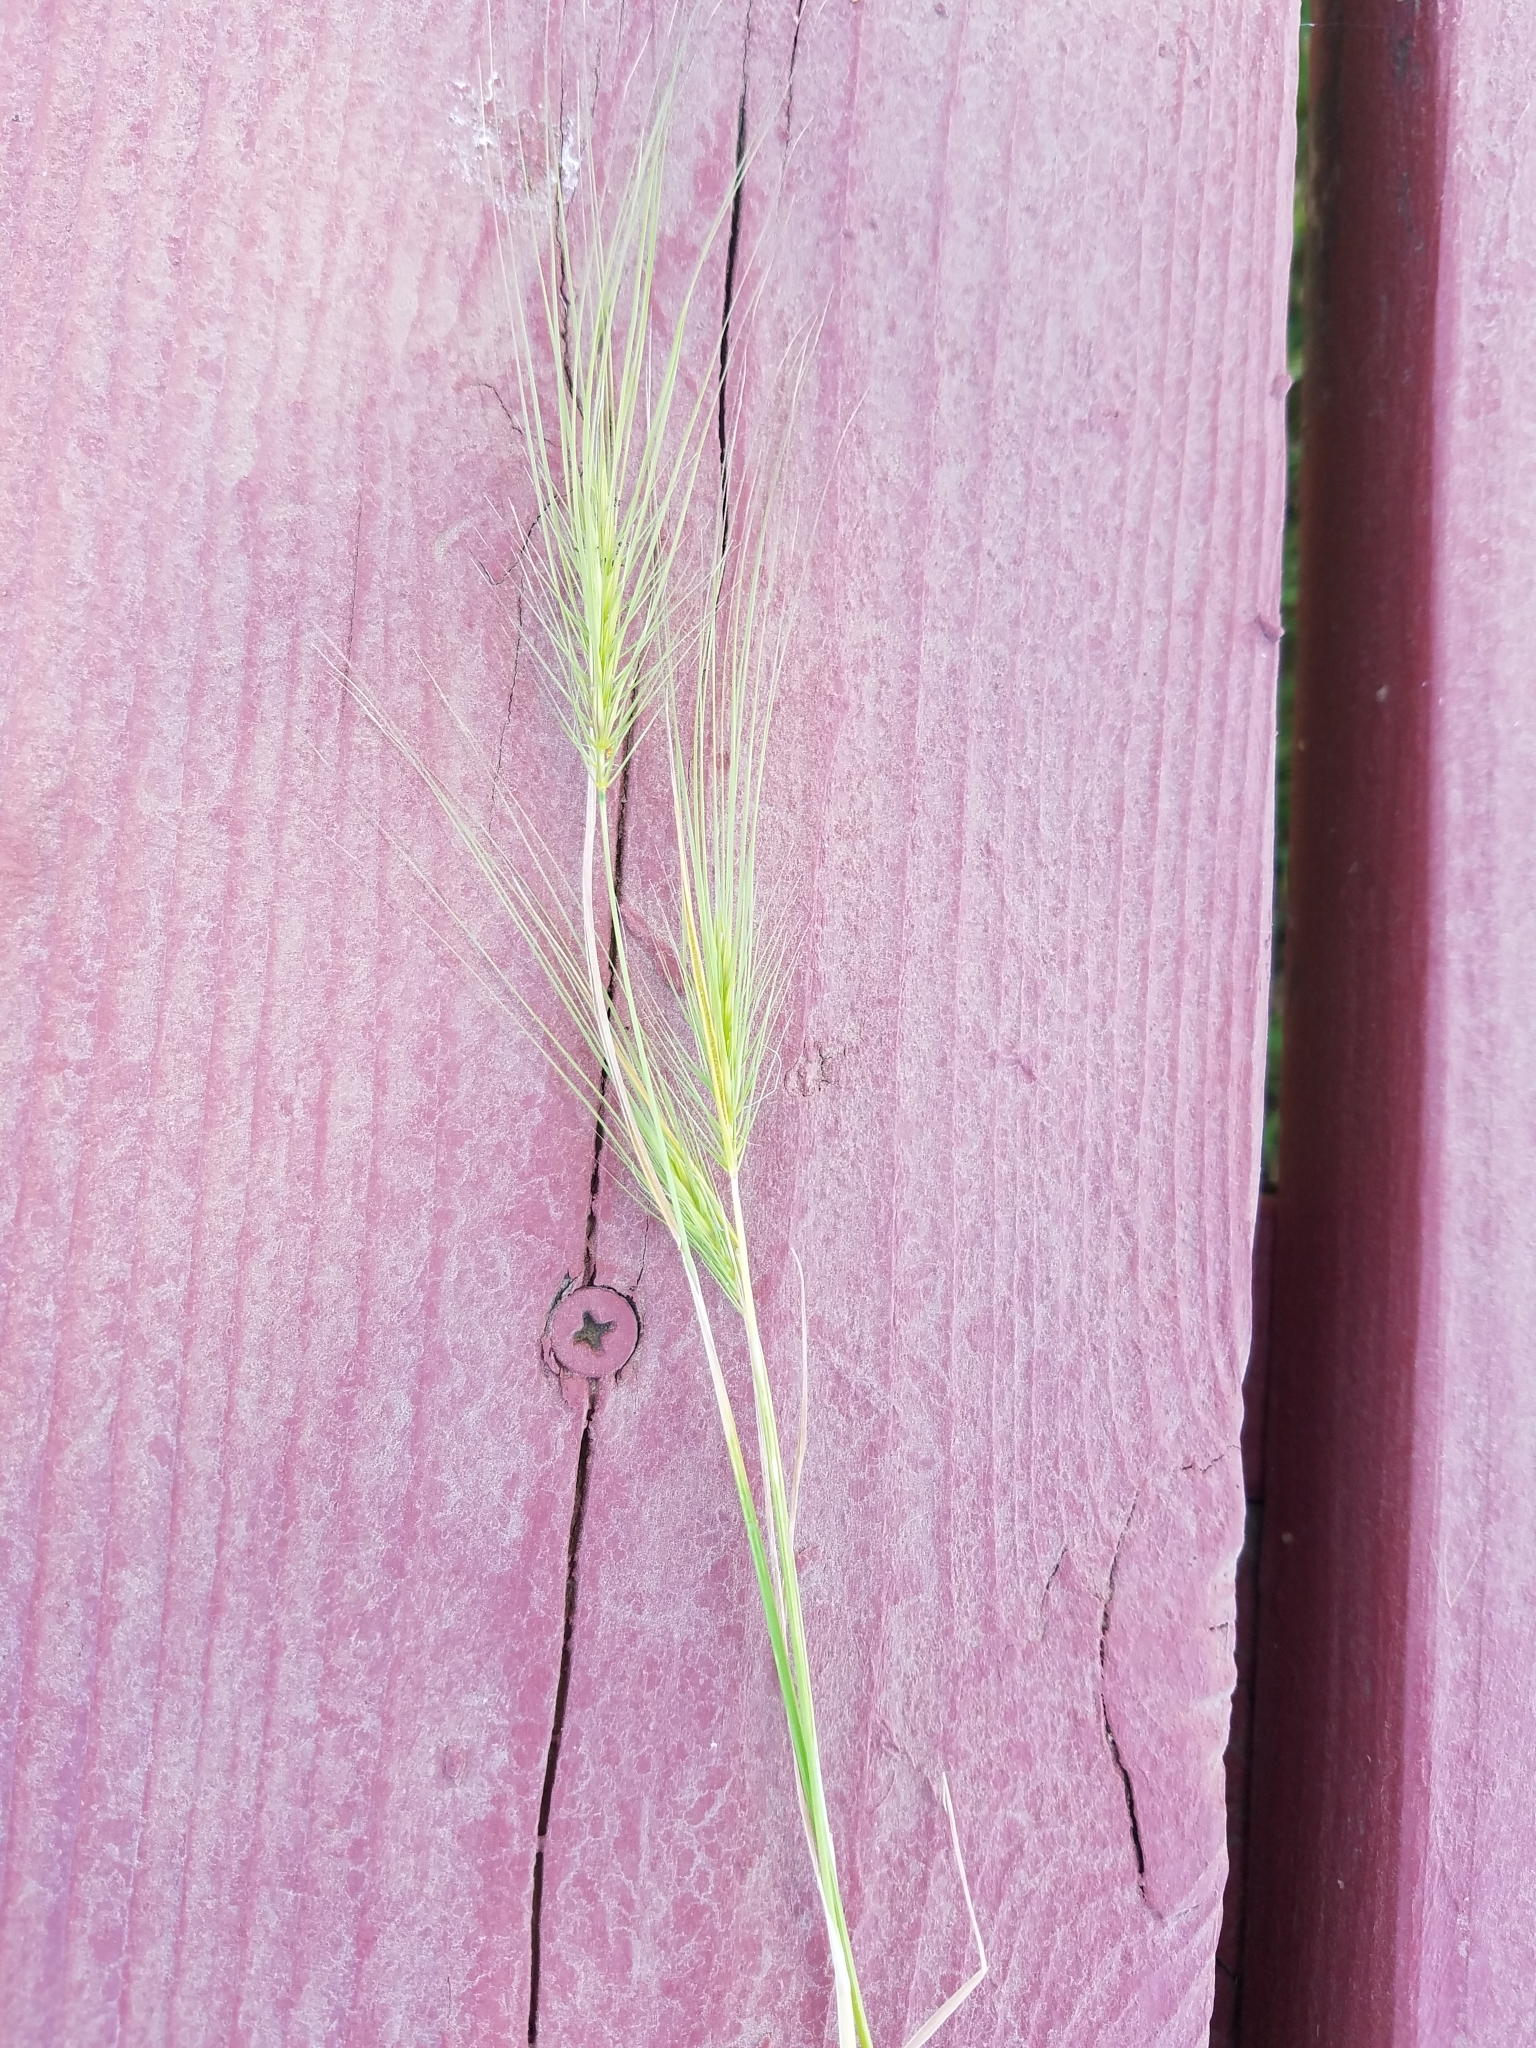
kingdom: Plantae
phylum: Tracheophyta
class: Liliopsida
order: Poales
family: Poaceae
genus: Taeniatherum
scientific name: Taeniatherum caput-medusae
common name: Medusahead
